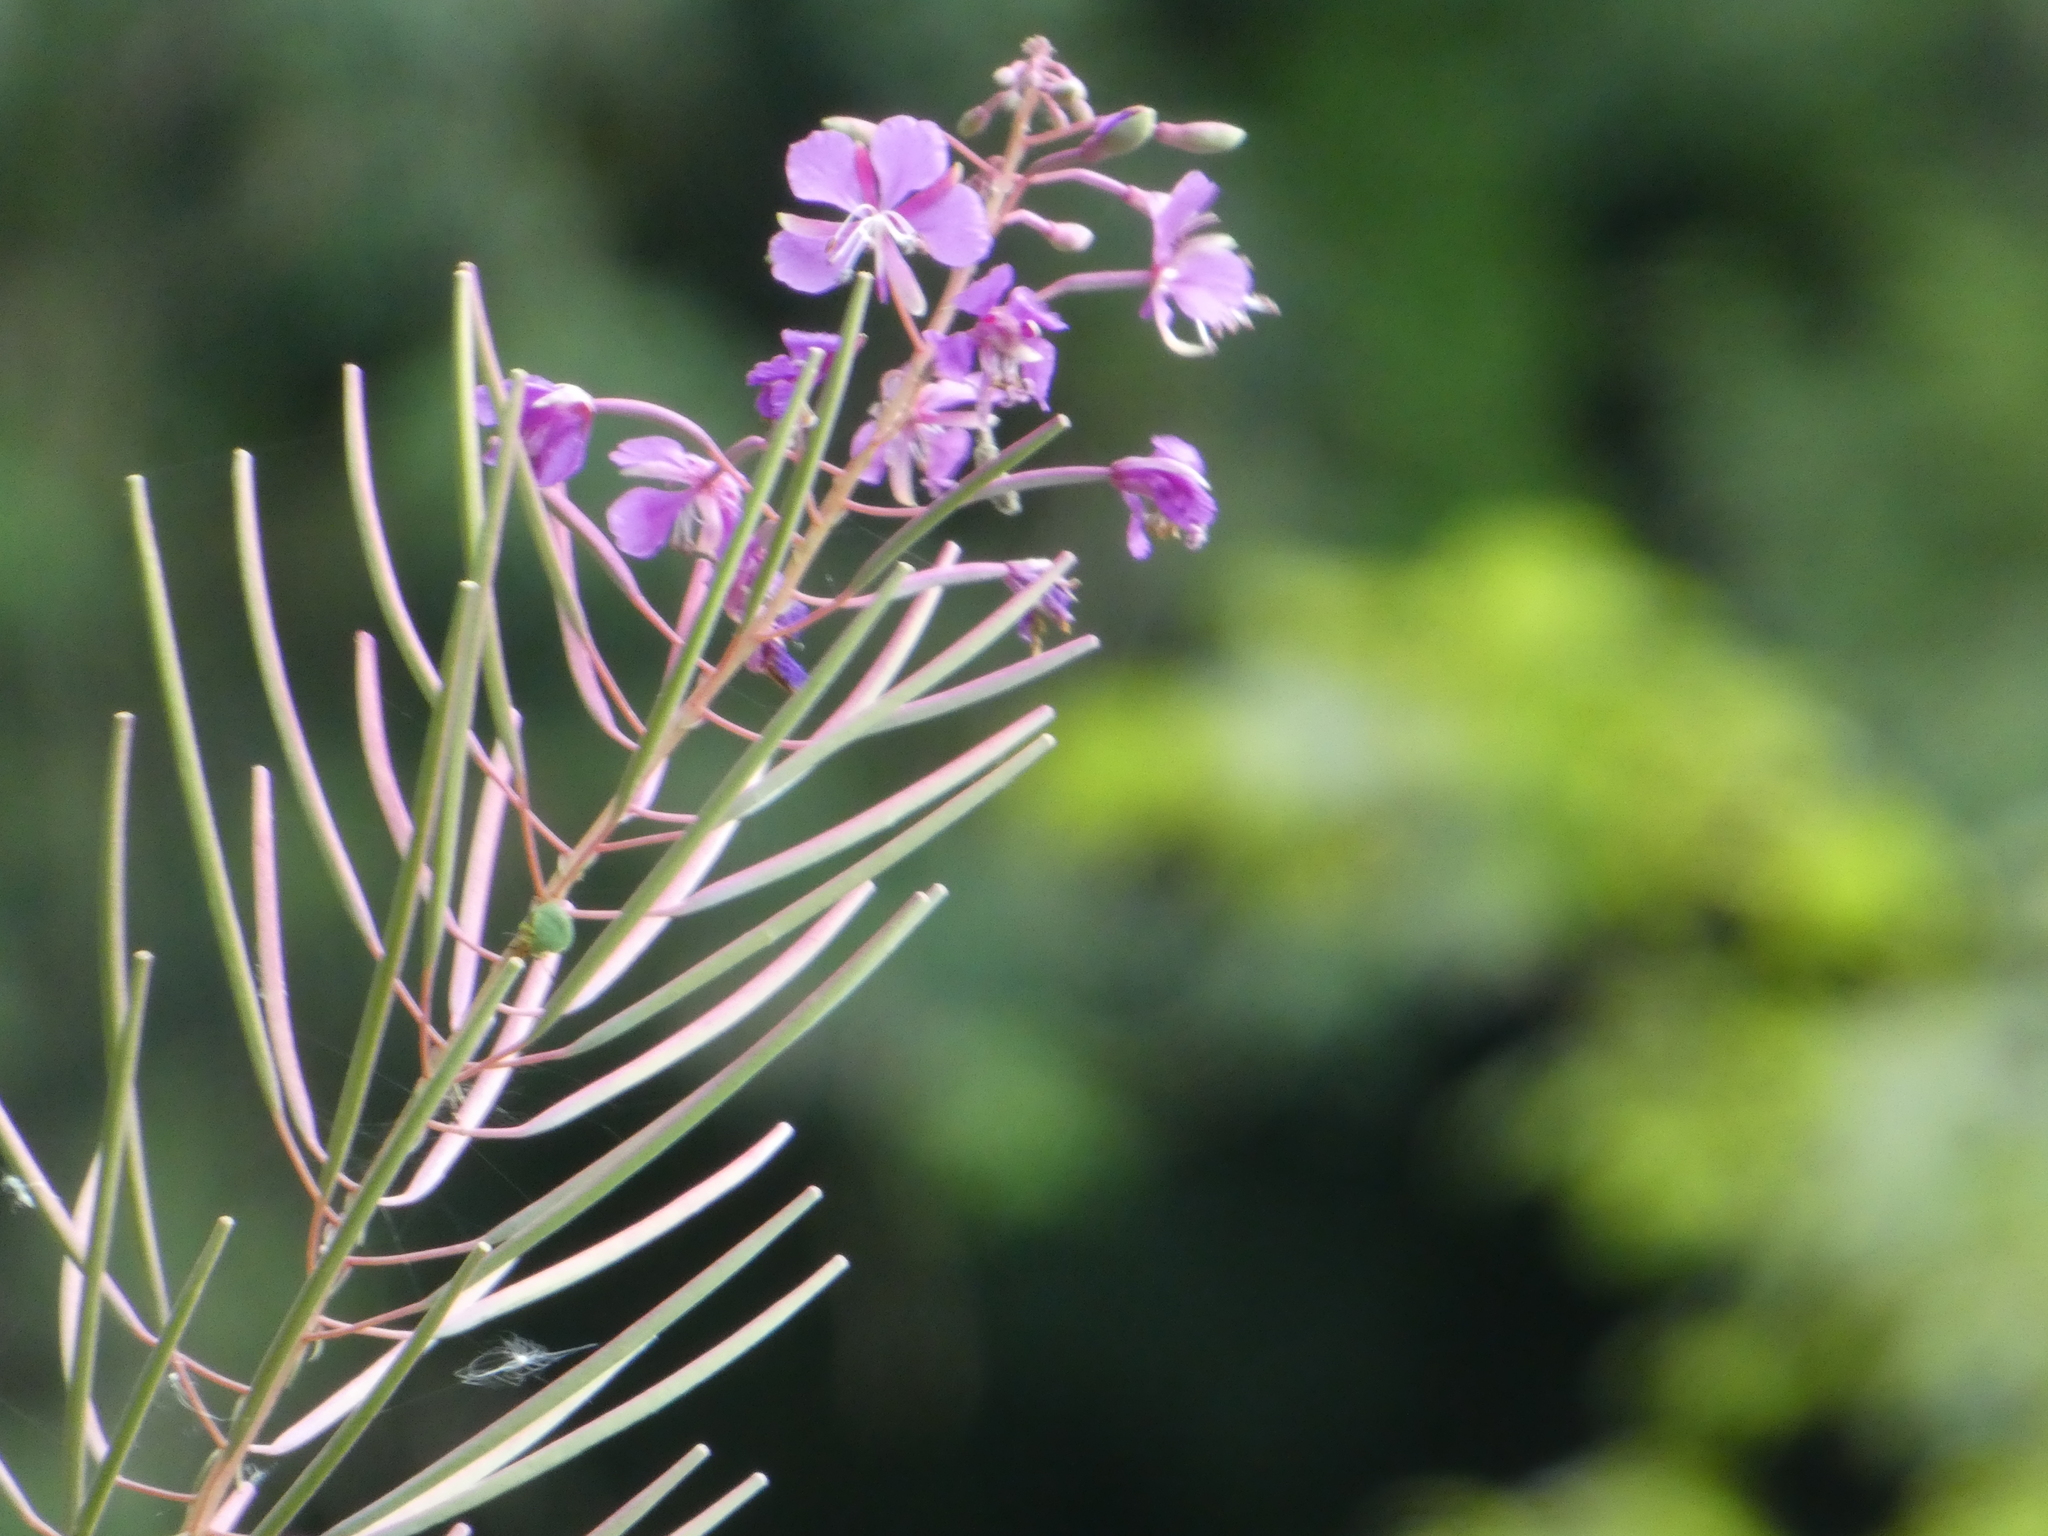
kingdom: Plantae
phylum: Tracheophyta
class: Magnoliopsida
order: Myrtales
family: Onagraceae
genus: Chamaenerion
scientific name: Chamaenerion angustifolium
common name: Fireweed
